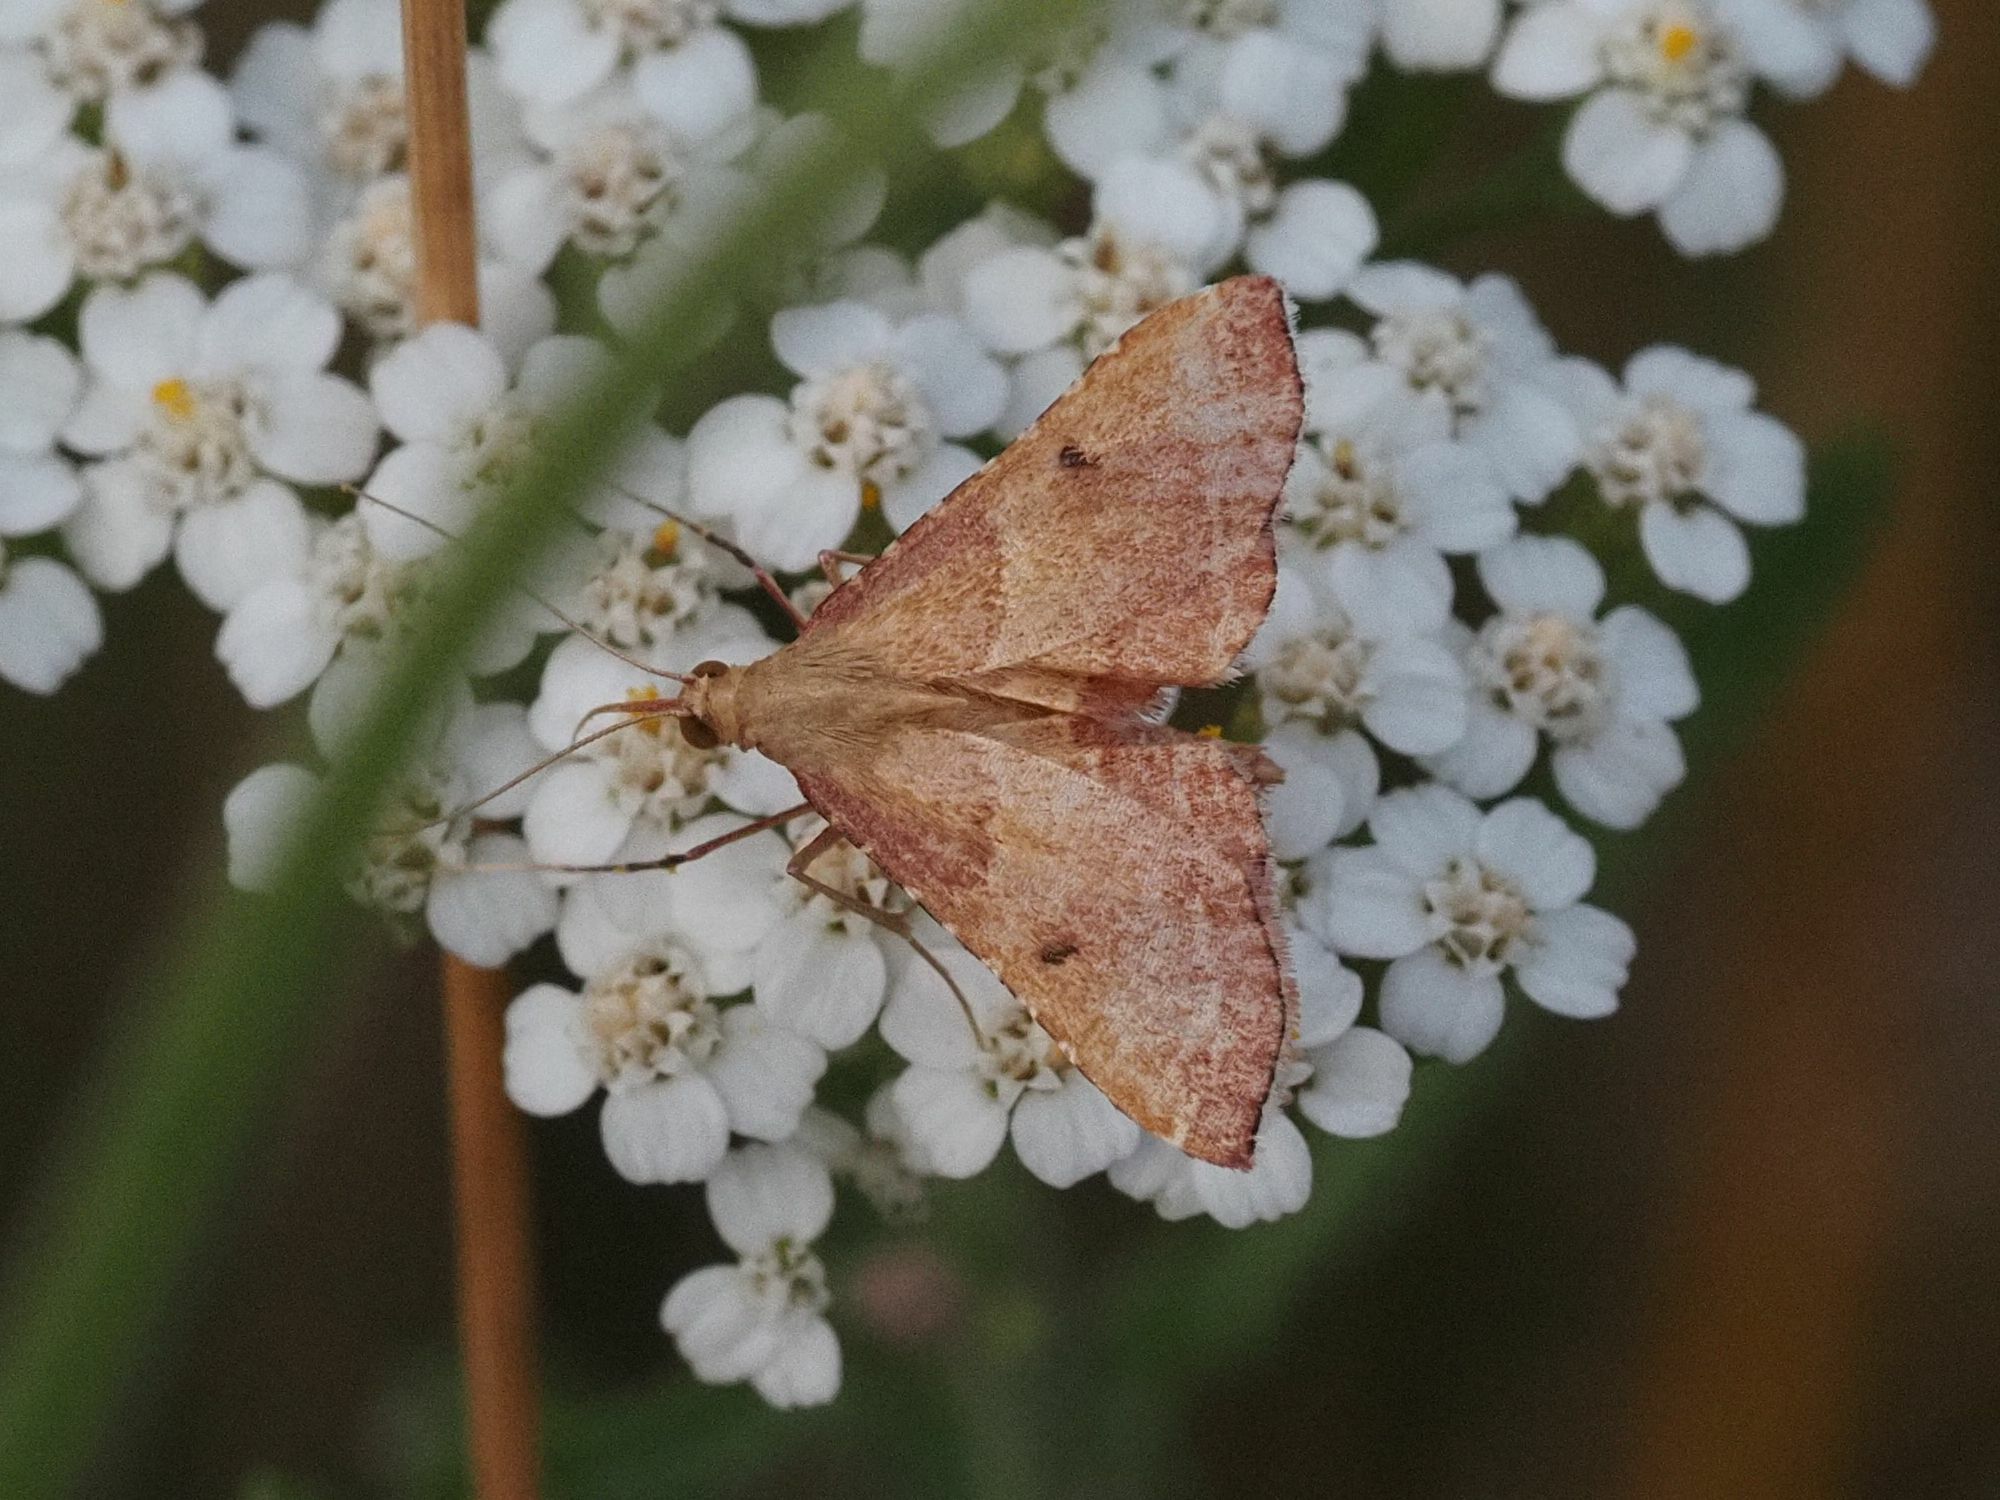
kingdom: Animalia
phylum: Arthropoda
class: Insecta
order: Lepidoptera
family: Pyralidae
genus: Endotricha
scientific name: Endotricha flammealis
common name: Rosy tabby
